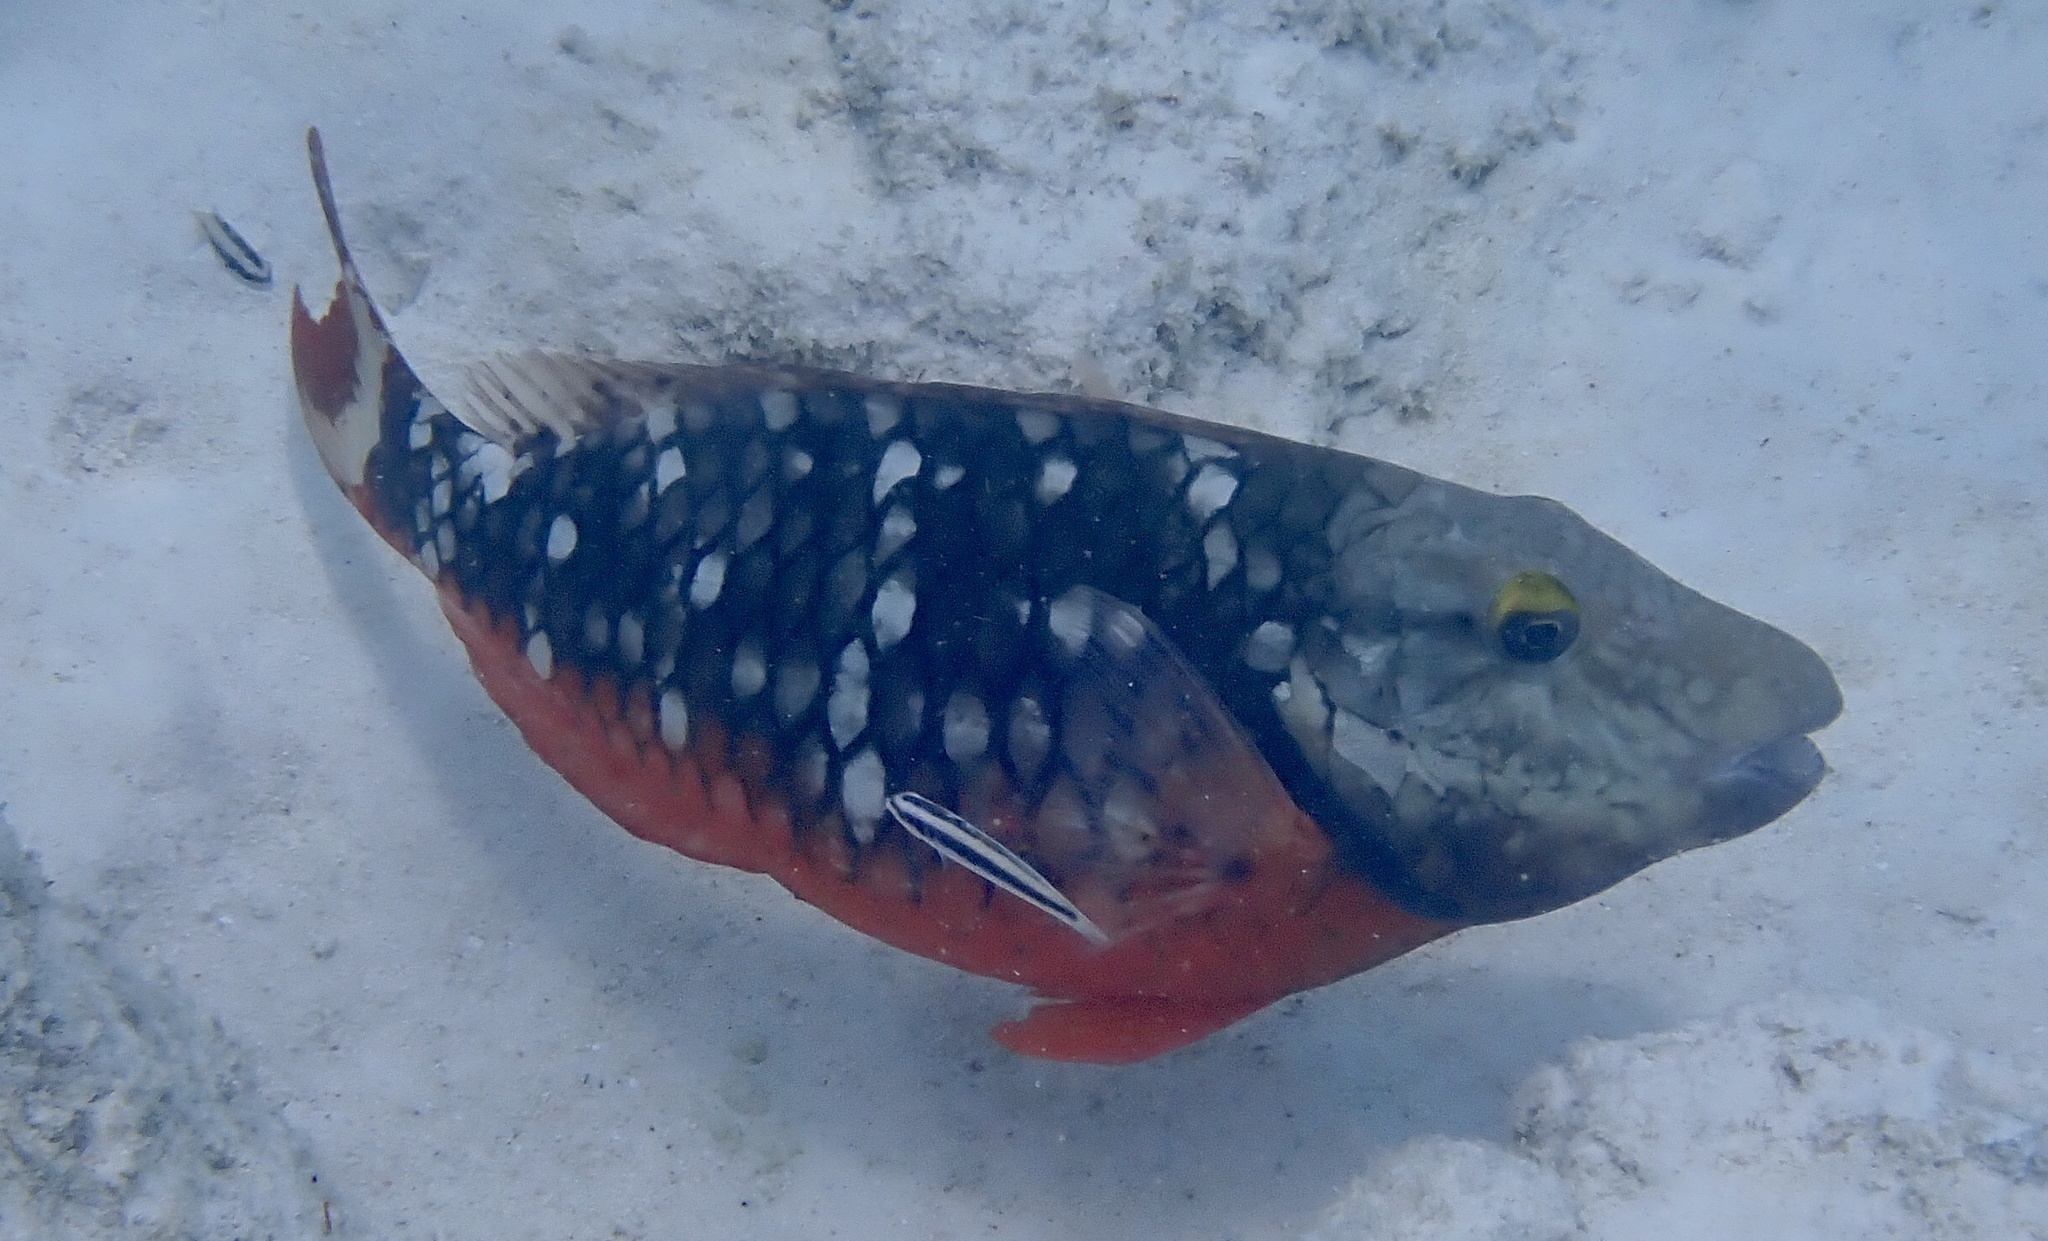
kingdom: Animalia
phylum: Chordata
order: Perciformes
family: Scaridae
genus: Sparisoma
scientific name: Sparisoma viride
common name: Stoplight parrotfish
